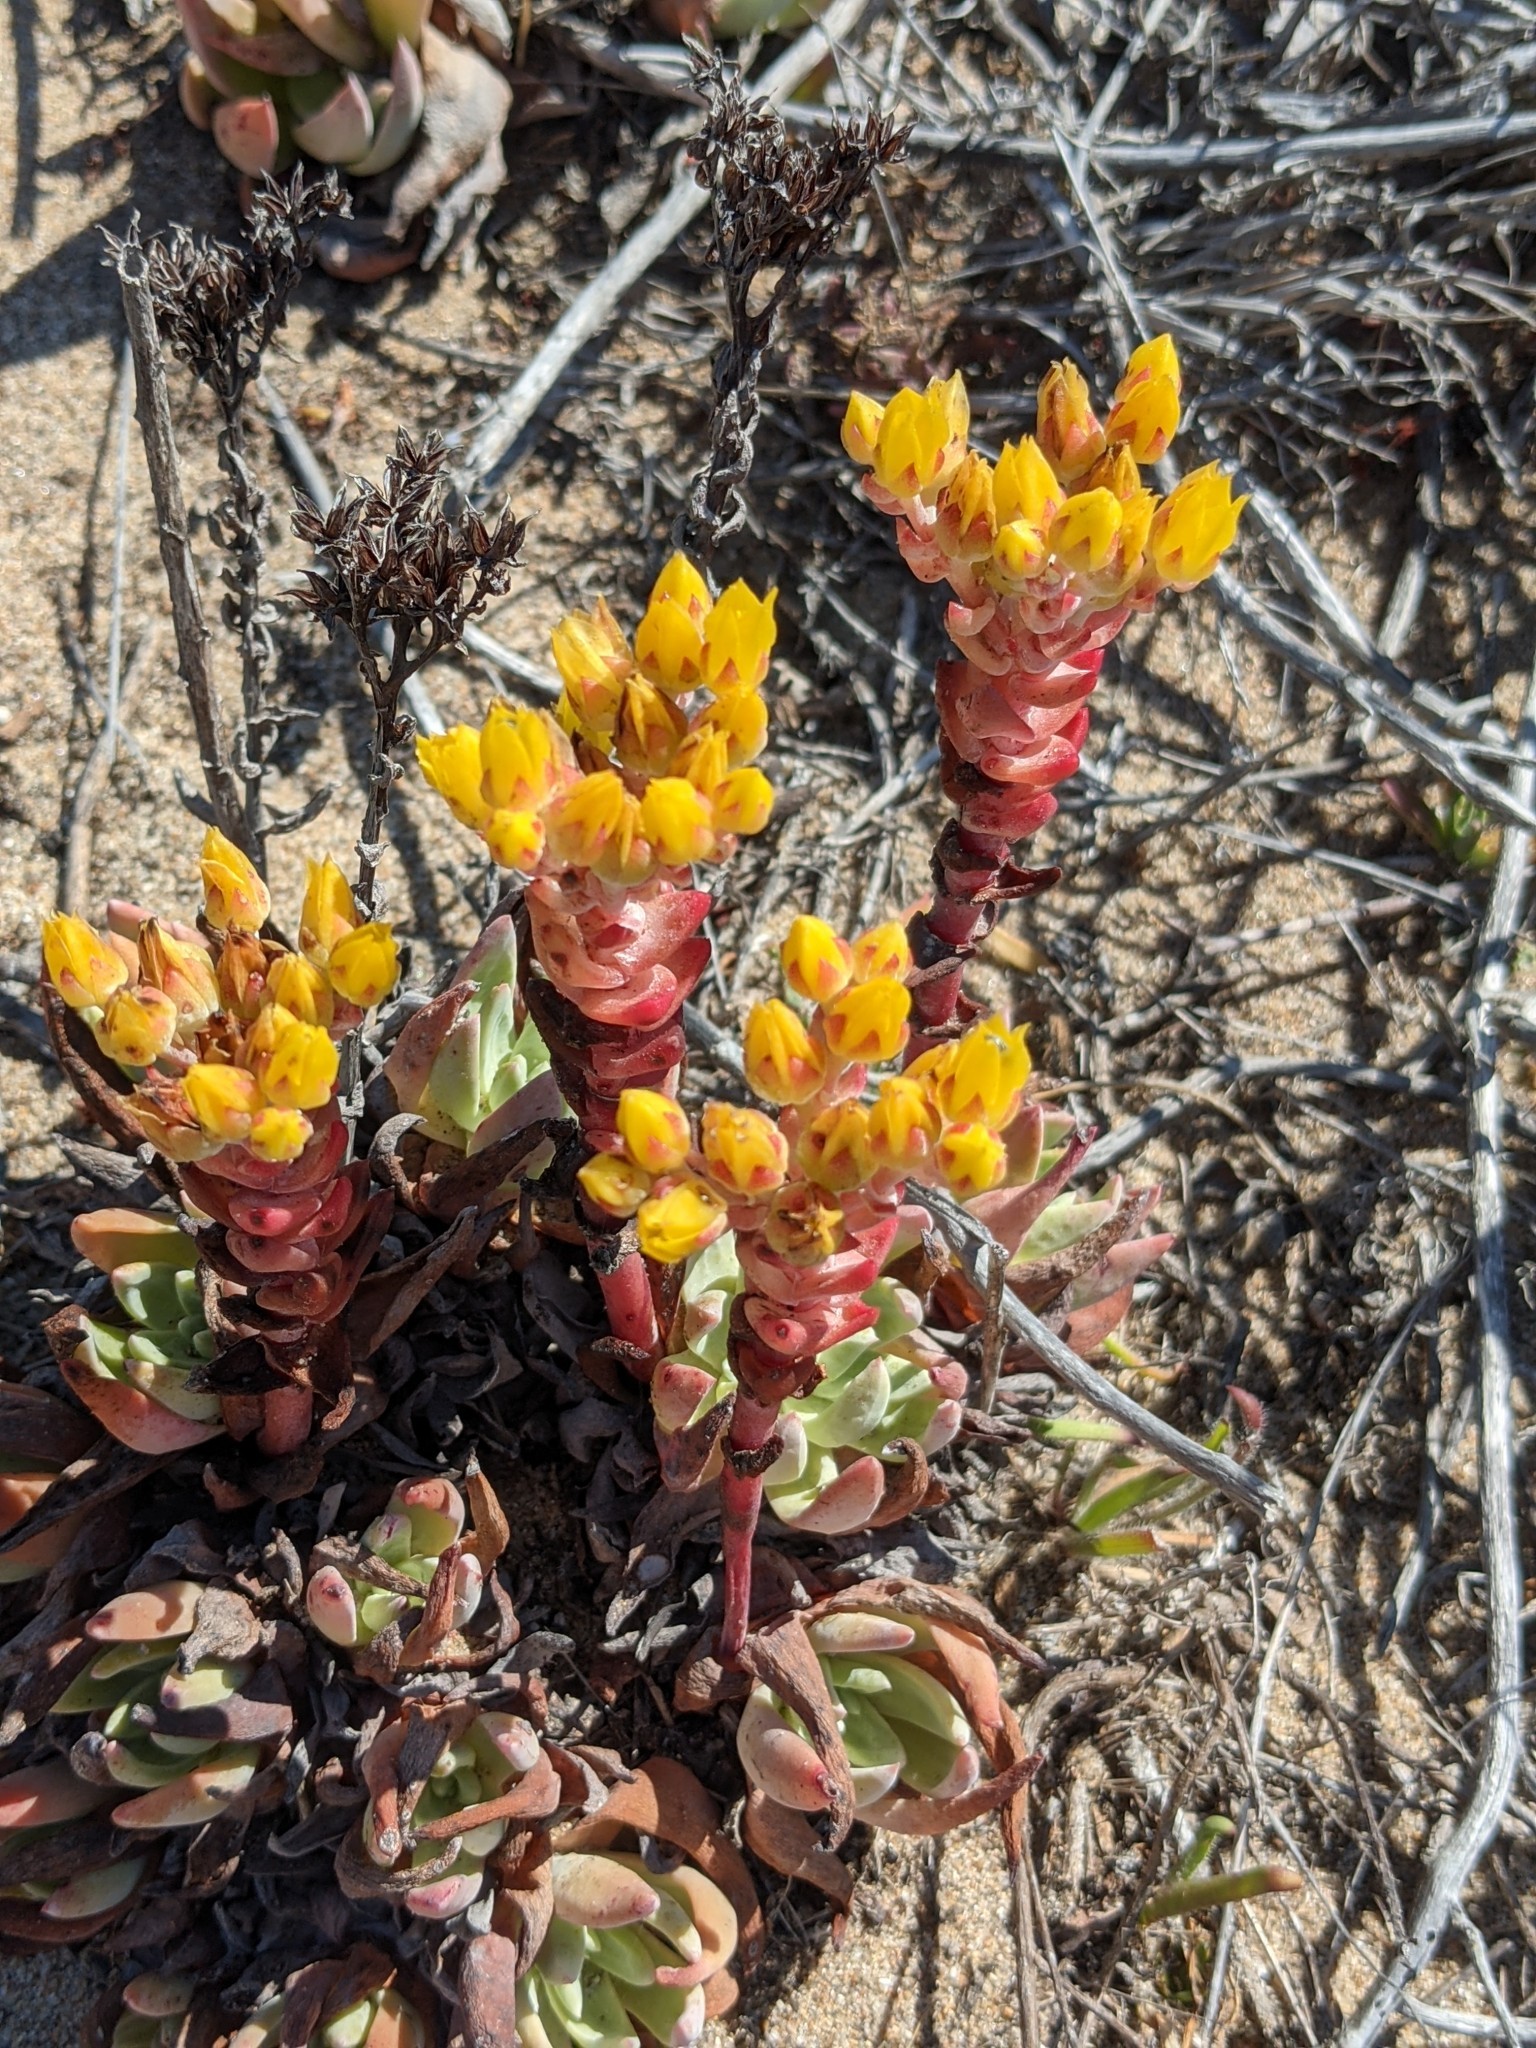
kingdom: Plantae
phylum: Tracheophyta
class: Magnoliopsida
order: Saxifragales
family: Crassulaceae
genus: Dudleya
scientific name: Dudleya caespitosa
